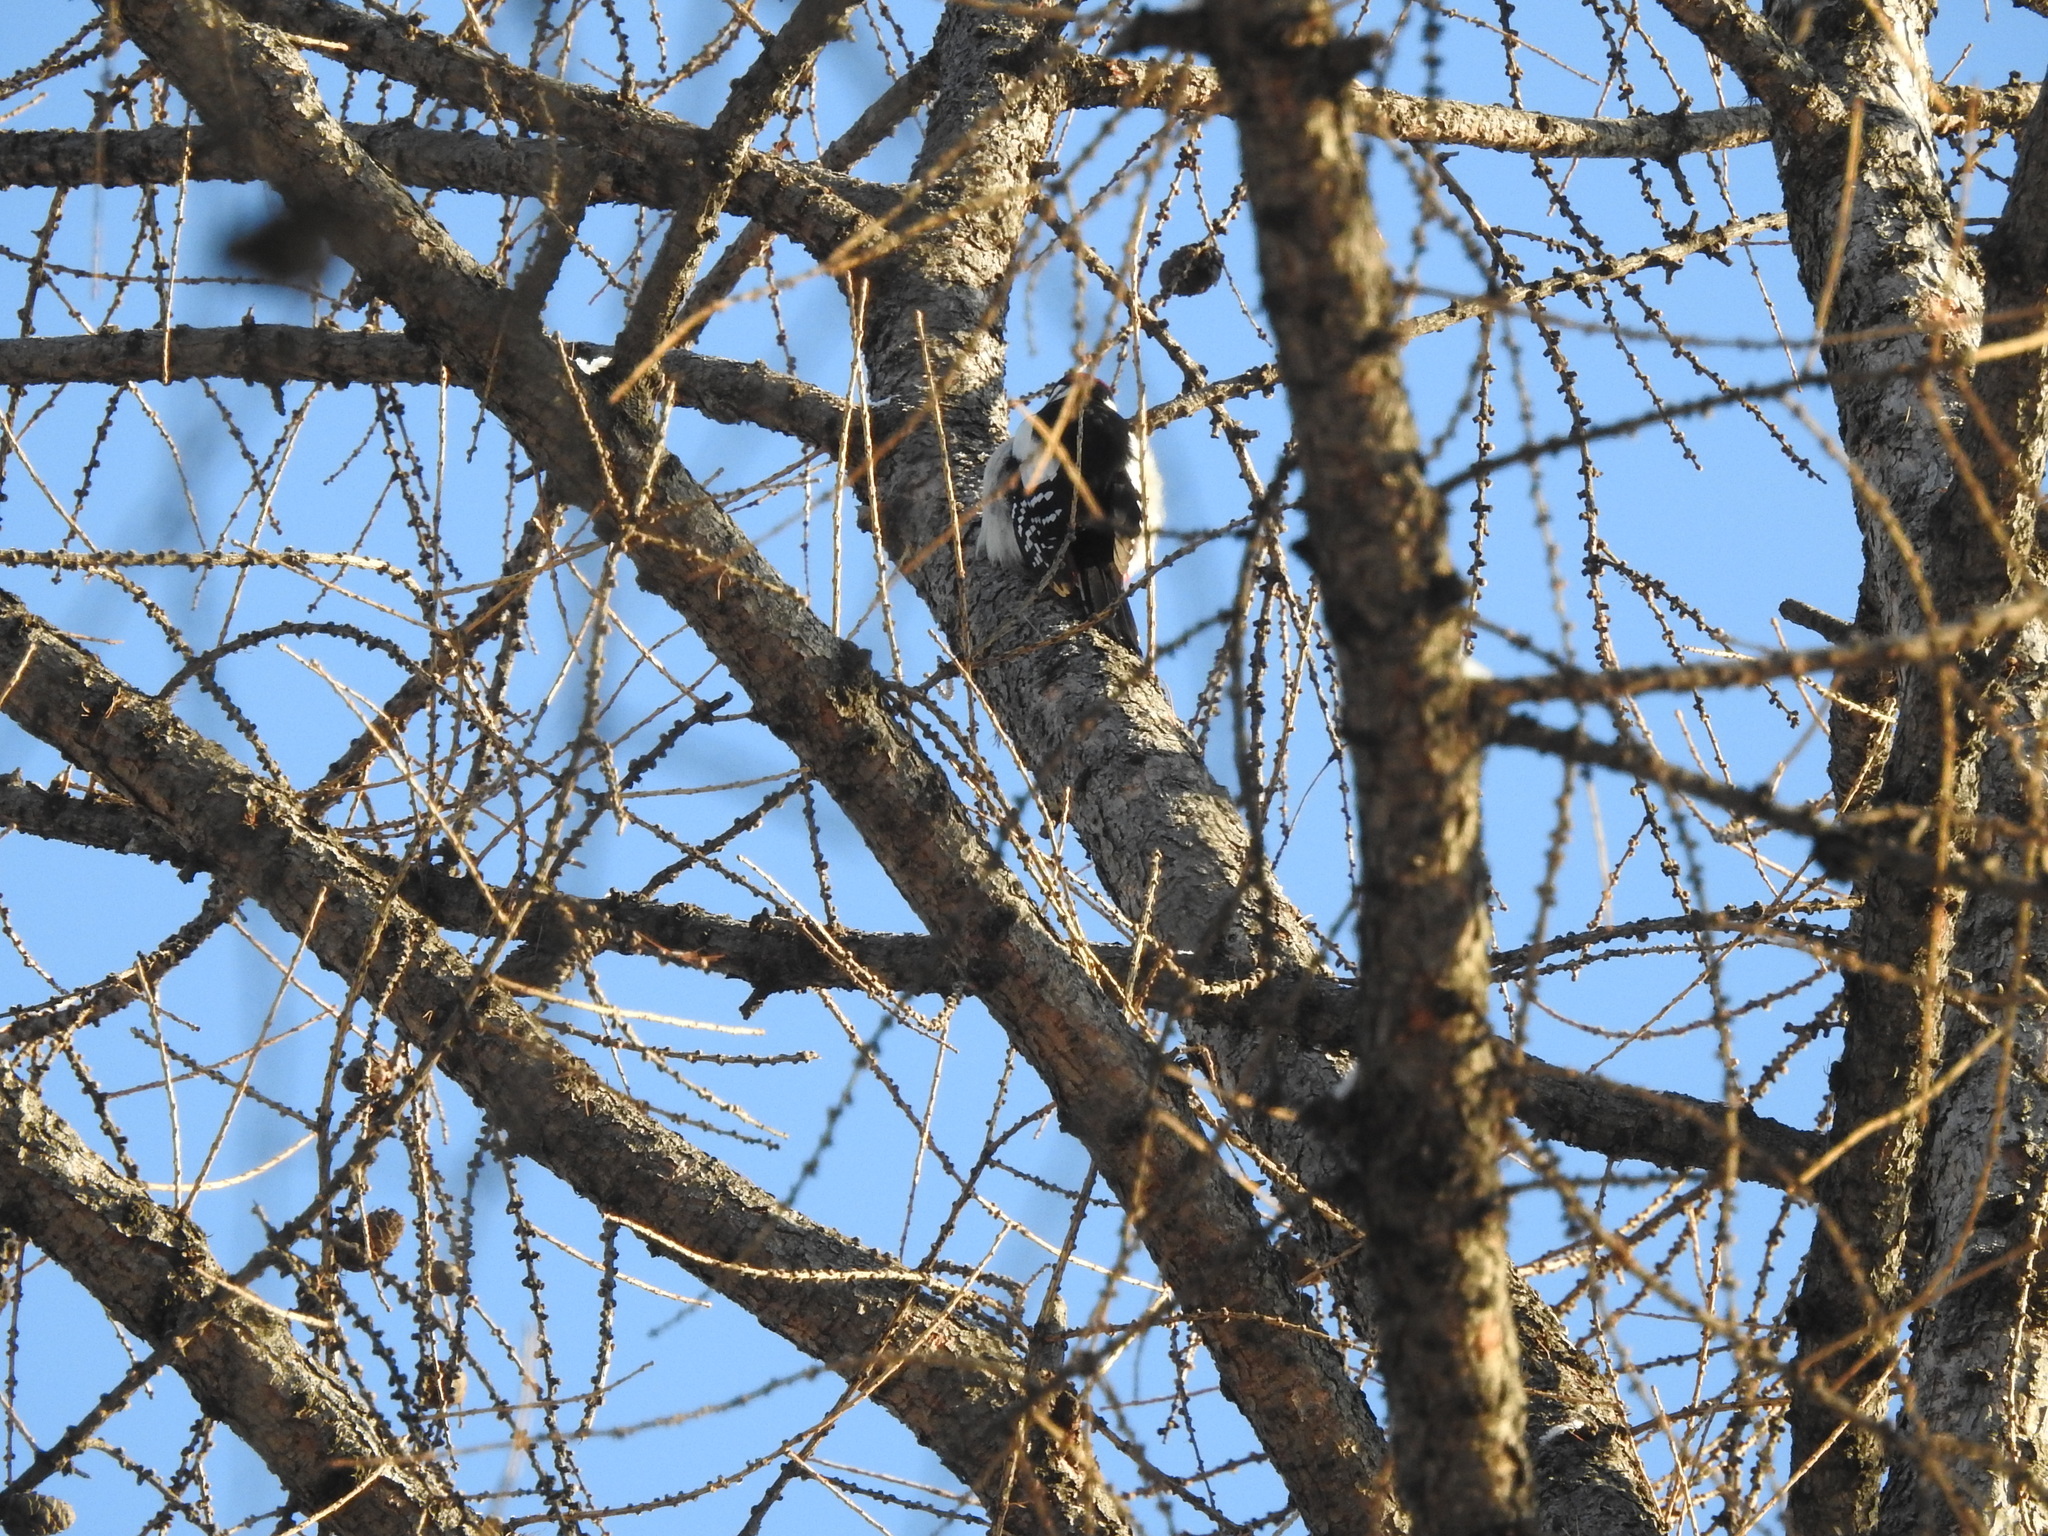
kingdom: Animalia
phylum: Chordata
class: Aves
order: Piciformes
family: Picidae
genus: Dendrocopos
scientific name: Dendrocopos major
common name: Great spotted woodpecker
